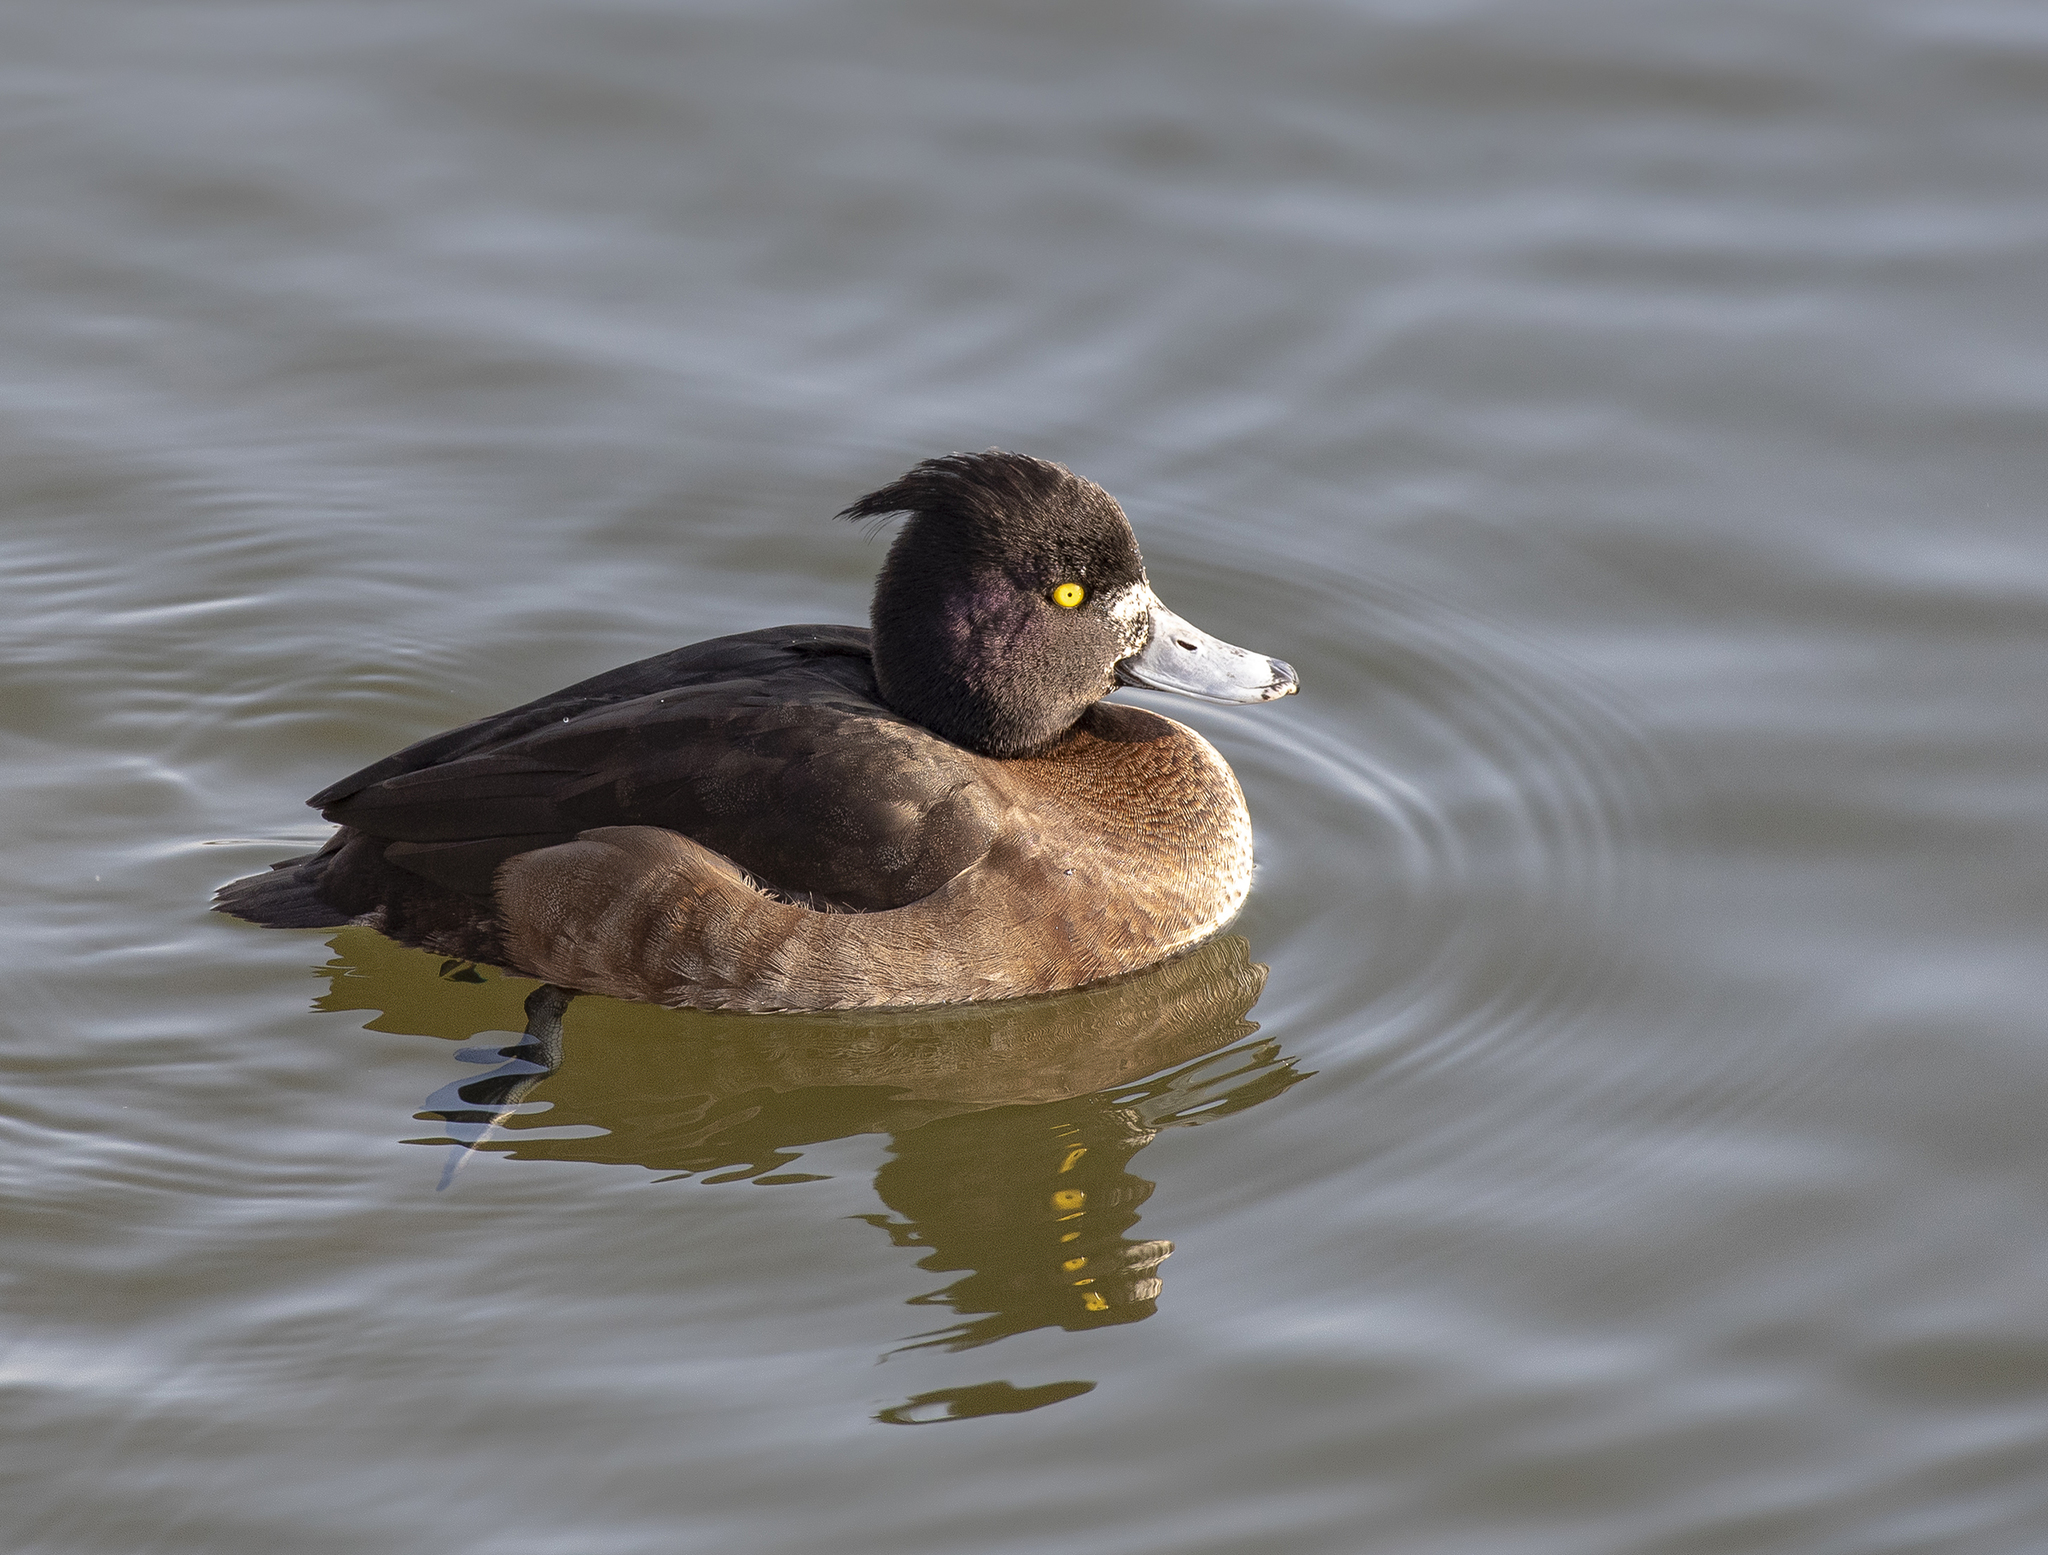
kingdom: Animalia
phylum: Chordata
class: Aves
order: Anseriformes
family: Anatidae
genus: Aythya
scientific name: Aythya fuligula
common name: Tufted duck
